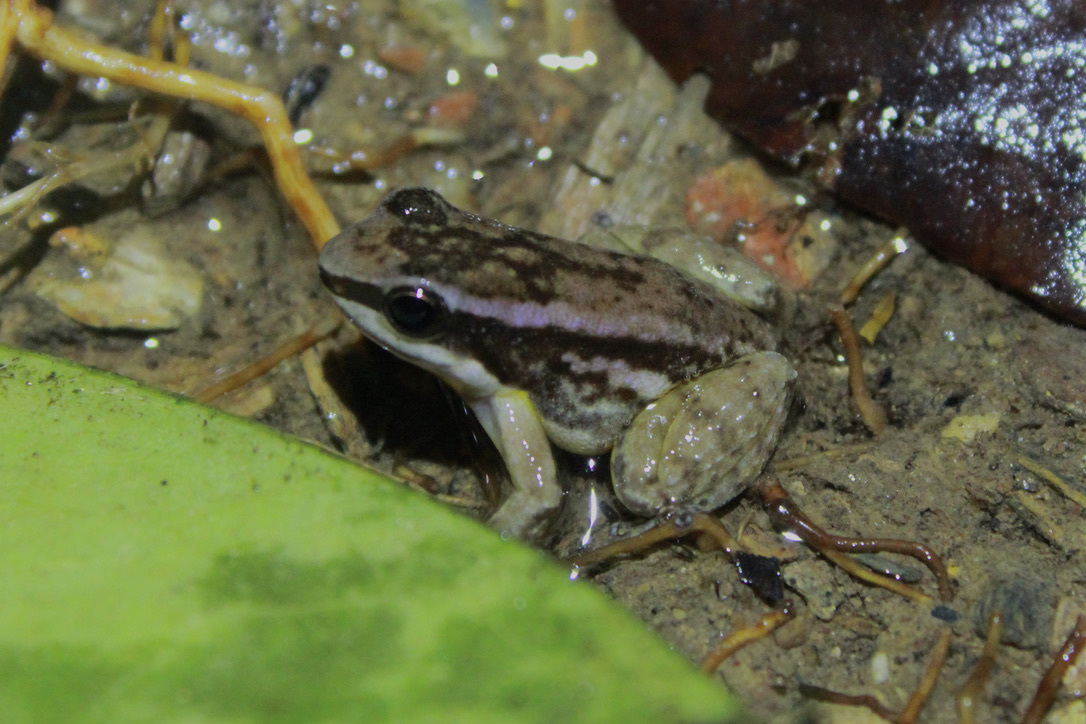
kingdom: Animalia
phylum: Chordata
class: Amphibia
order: Anura
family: Aromobatidae
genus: Mannophryne
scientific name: Mannophryne trinitatis
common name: Trinidad poison frog
